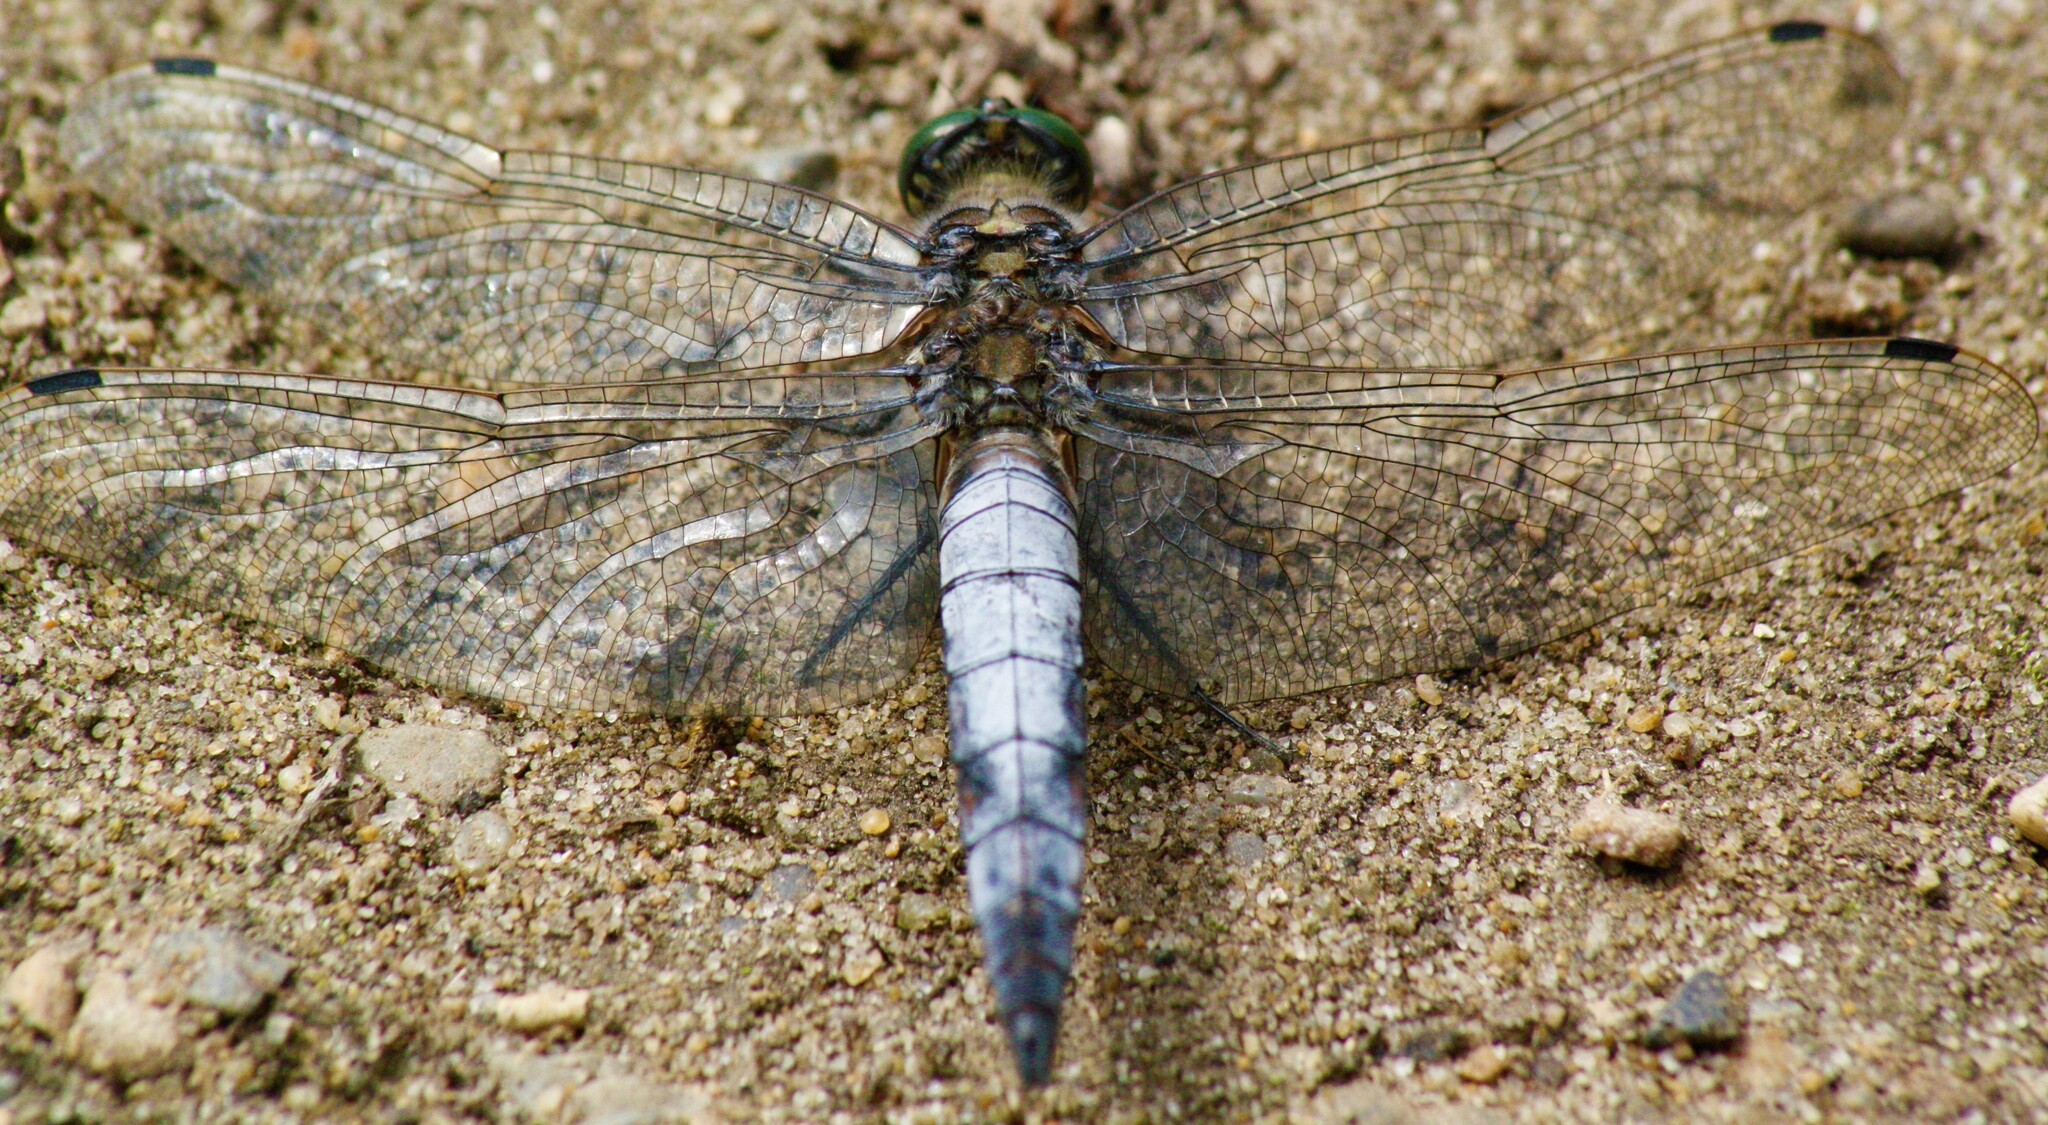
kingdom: Animalia
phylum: Arthropoda
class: Insecta
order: Odonata
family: Libellulidae
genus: Orthetrum
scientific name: Orthetrum cancellatum
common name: Black-tailed skimmer
